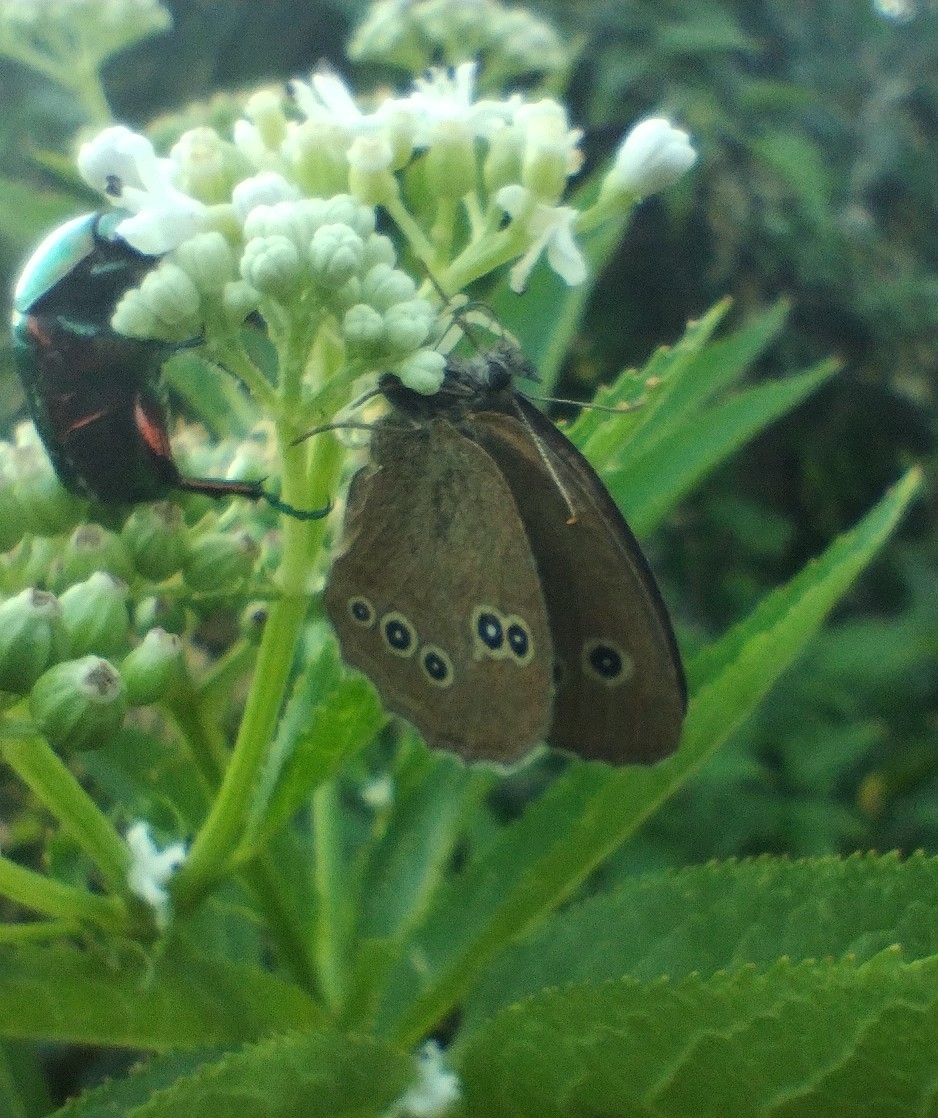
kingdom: Animalia
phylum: Arthropoda
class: Insecta
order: Lepidoptera
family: Nymphalidae
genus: Aphantopus
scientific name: Aphantopus hyperantus
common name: Ringlet
